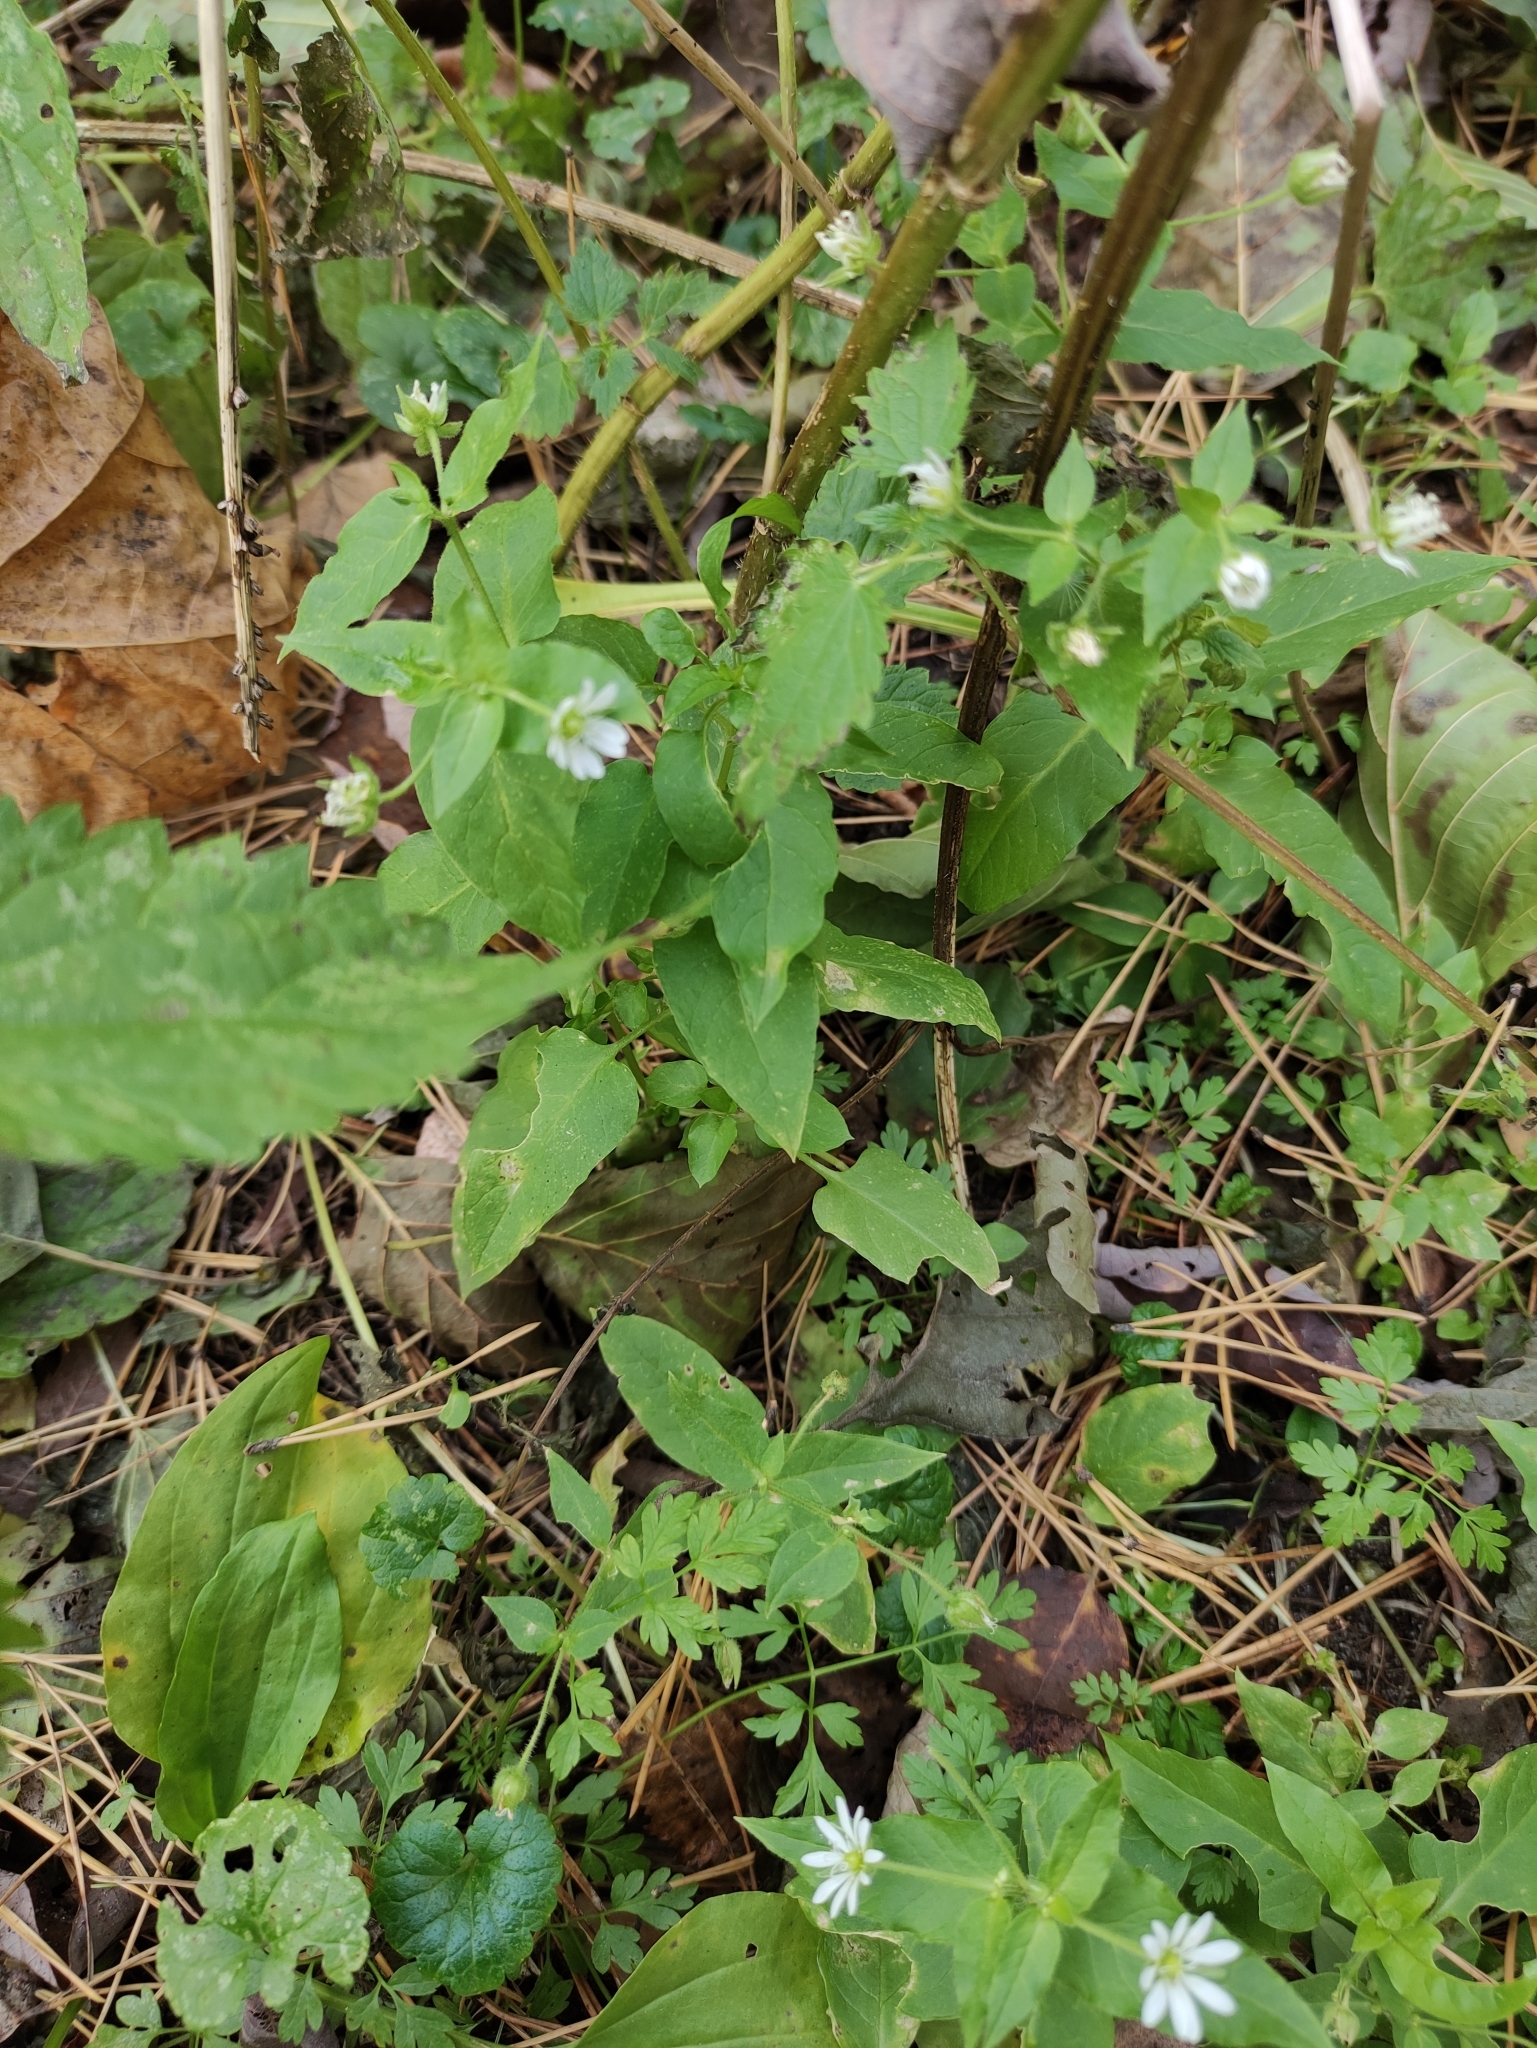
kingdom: Plantae
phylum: Tracheophyta
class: Magnoliopsida
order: Caryophyllales
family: Caryophyllaceae
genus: Stellaria
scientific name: Stellaria aquatica
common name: Water chickweed
